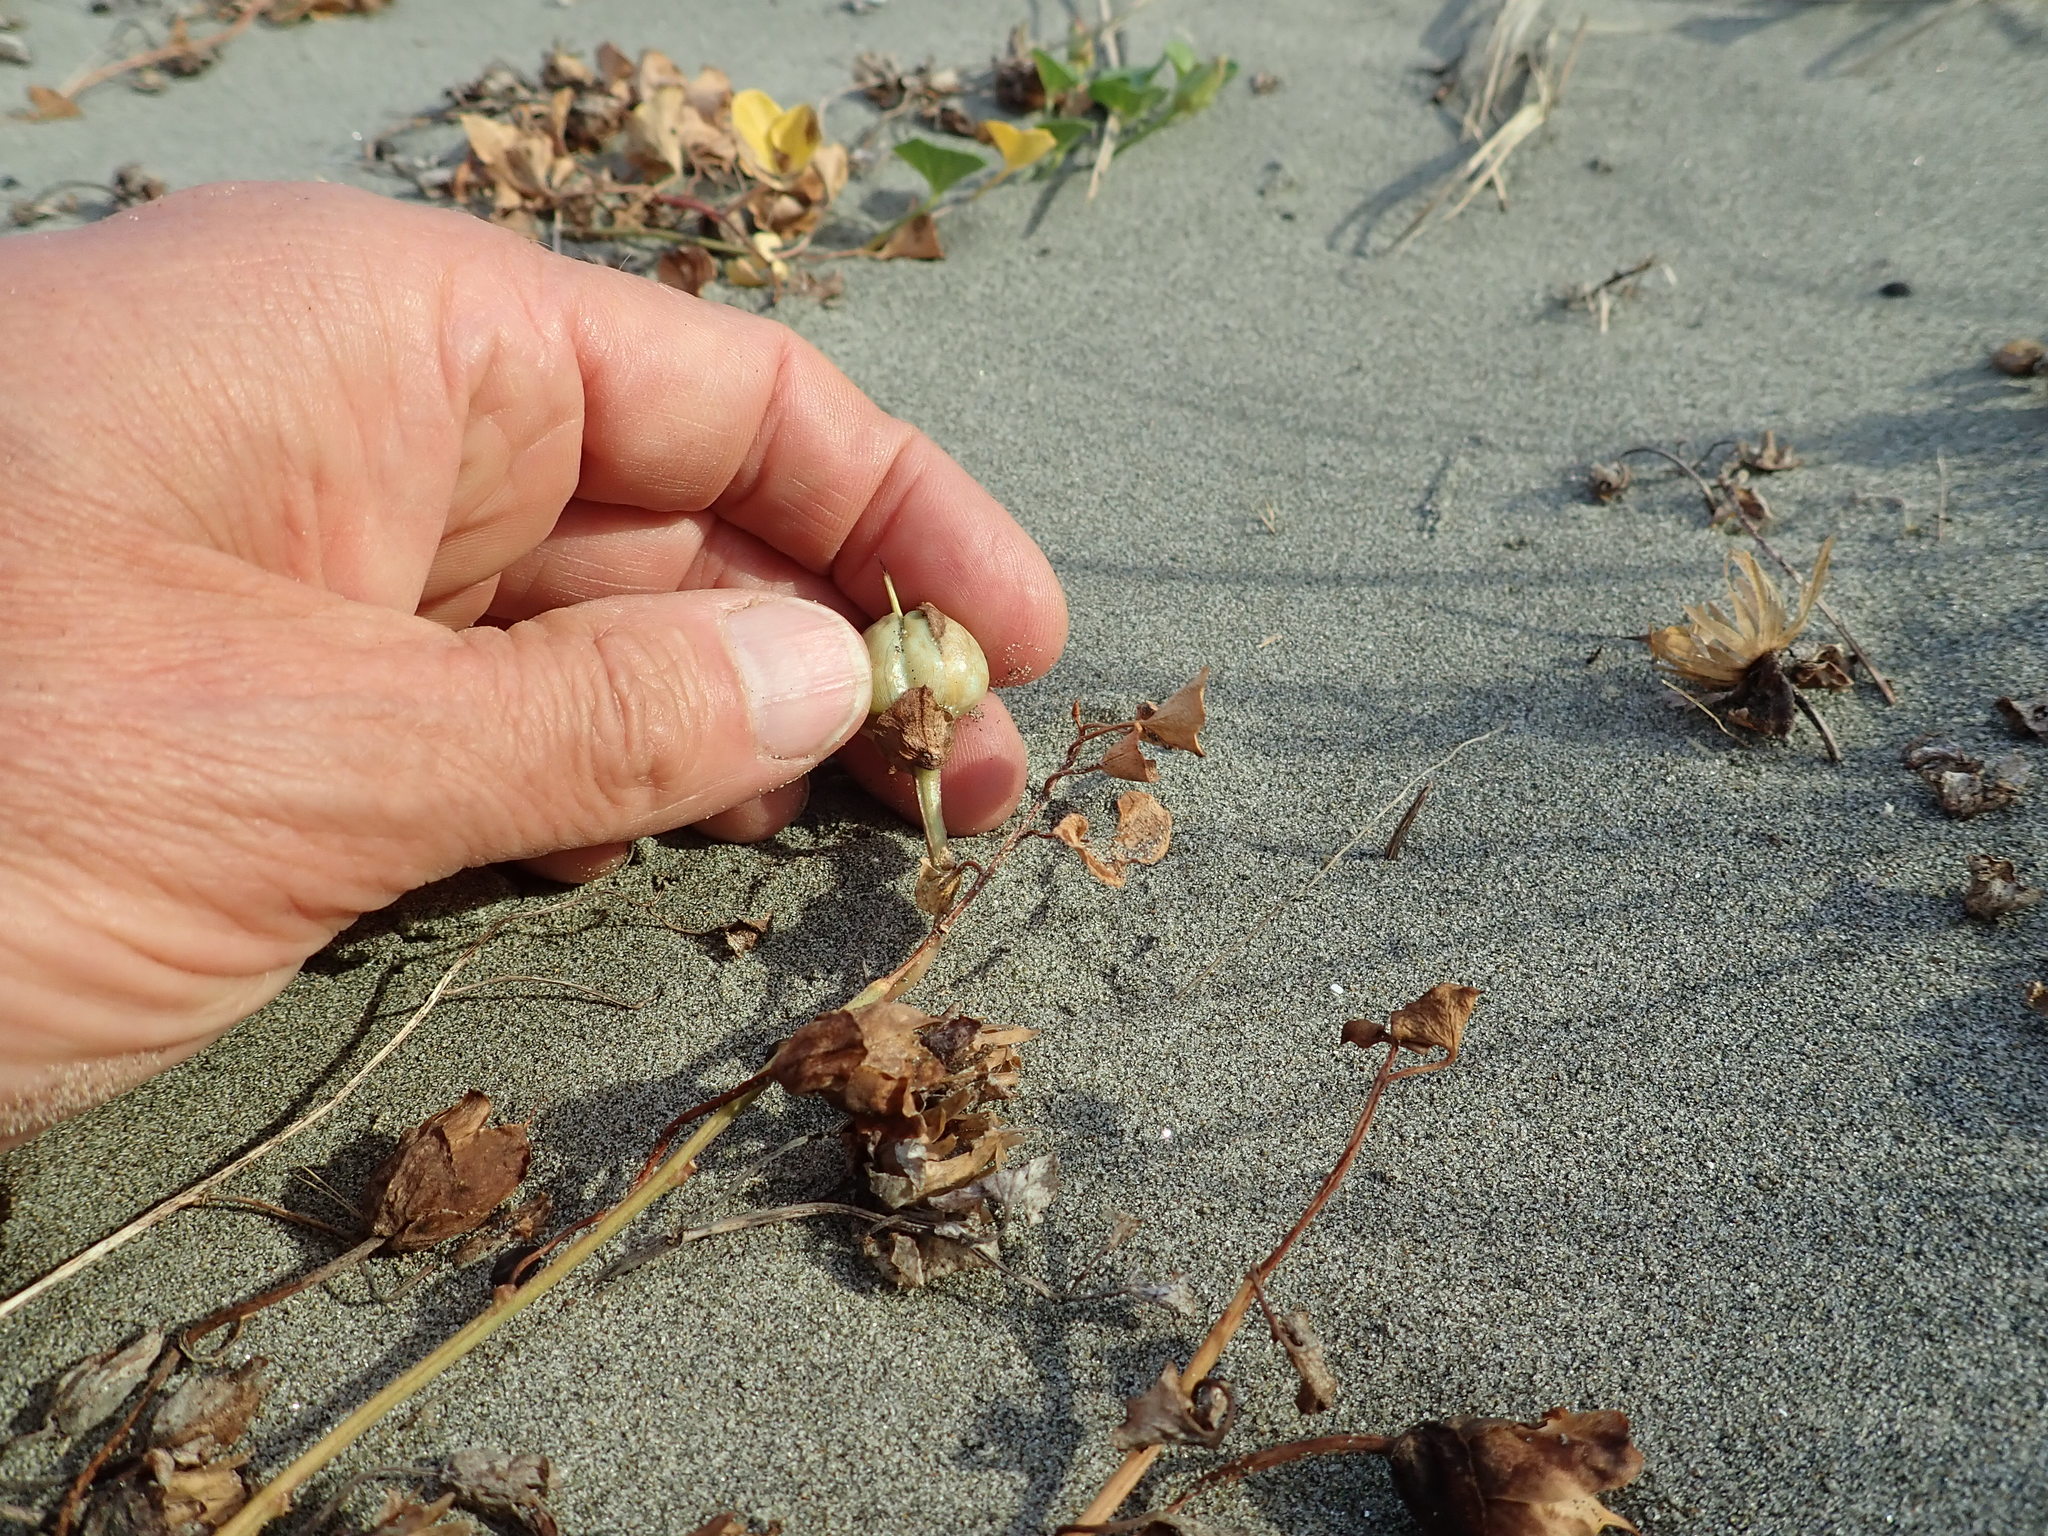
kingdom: Plantae
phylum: Tracheophyta
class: Magnoliopsida
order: Solanales
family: Convolvulaceae
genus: Calystegia
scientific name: Calystegia soldanella
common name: Sea bindweed
